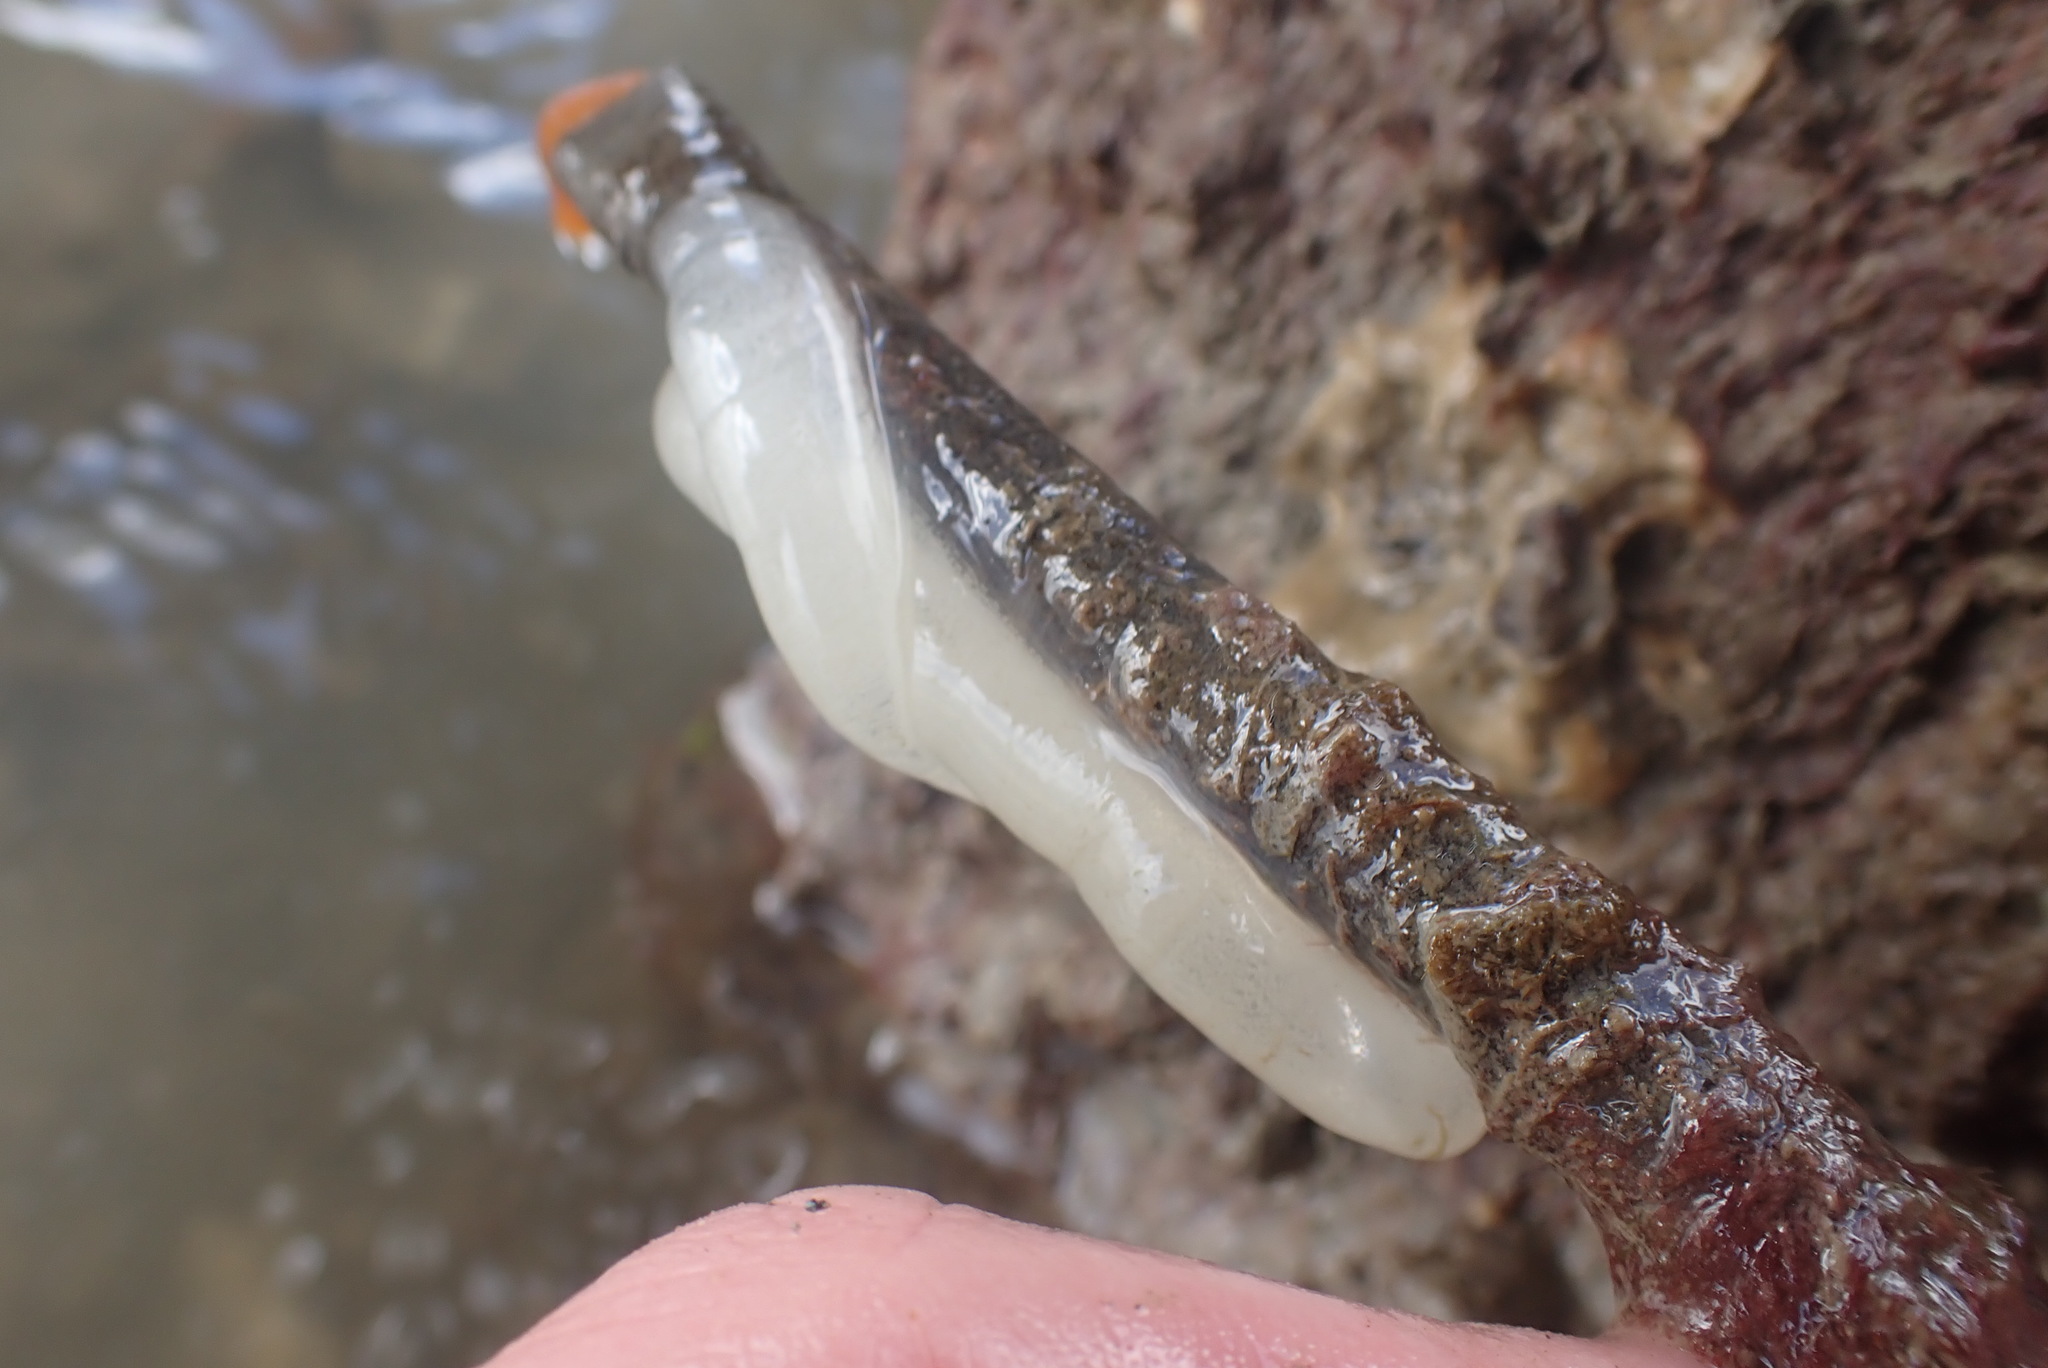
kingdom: Animalia
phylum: Mollusca
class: Gastropoda
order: Pleurobranchida
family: Pleurobranchaeidae
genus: Pleurobranchaea
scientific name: Pleurobranchaea maculata
